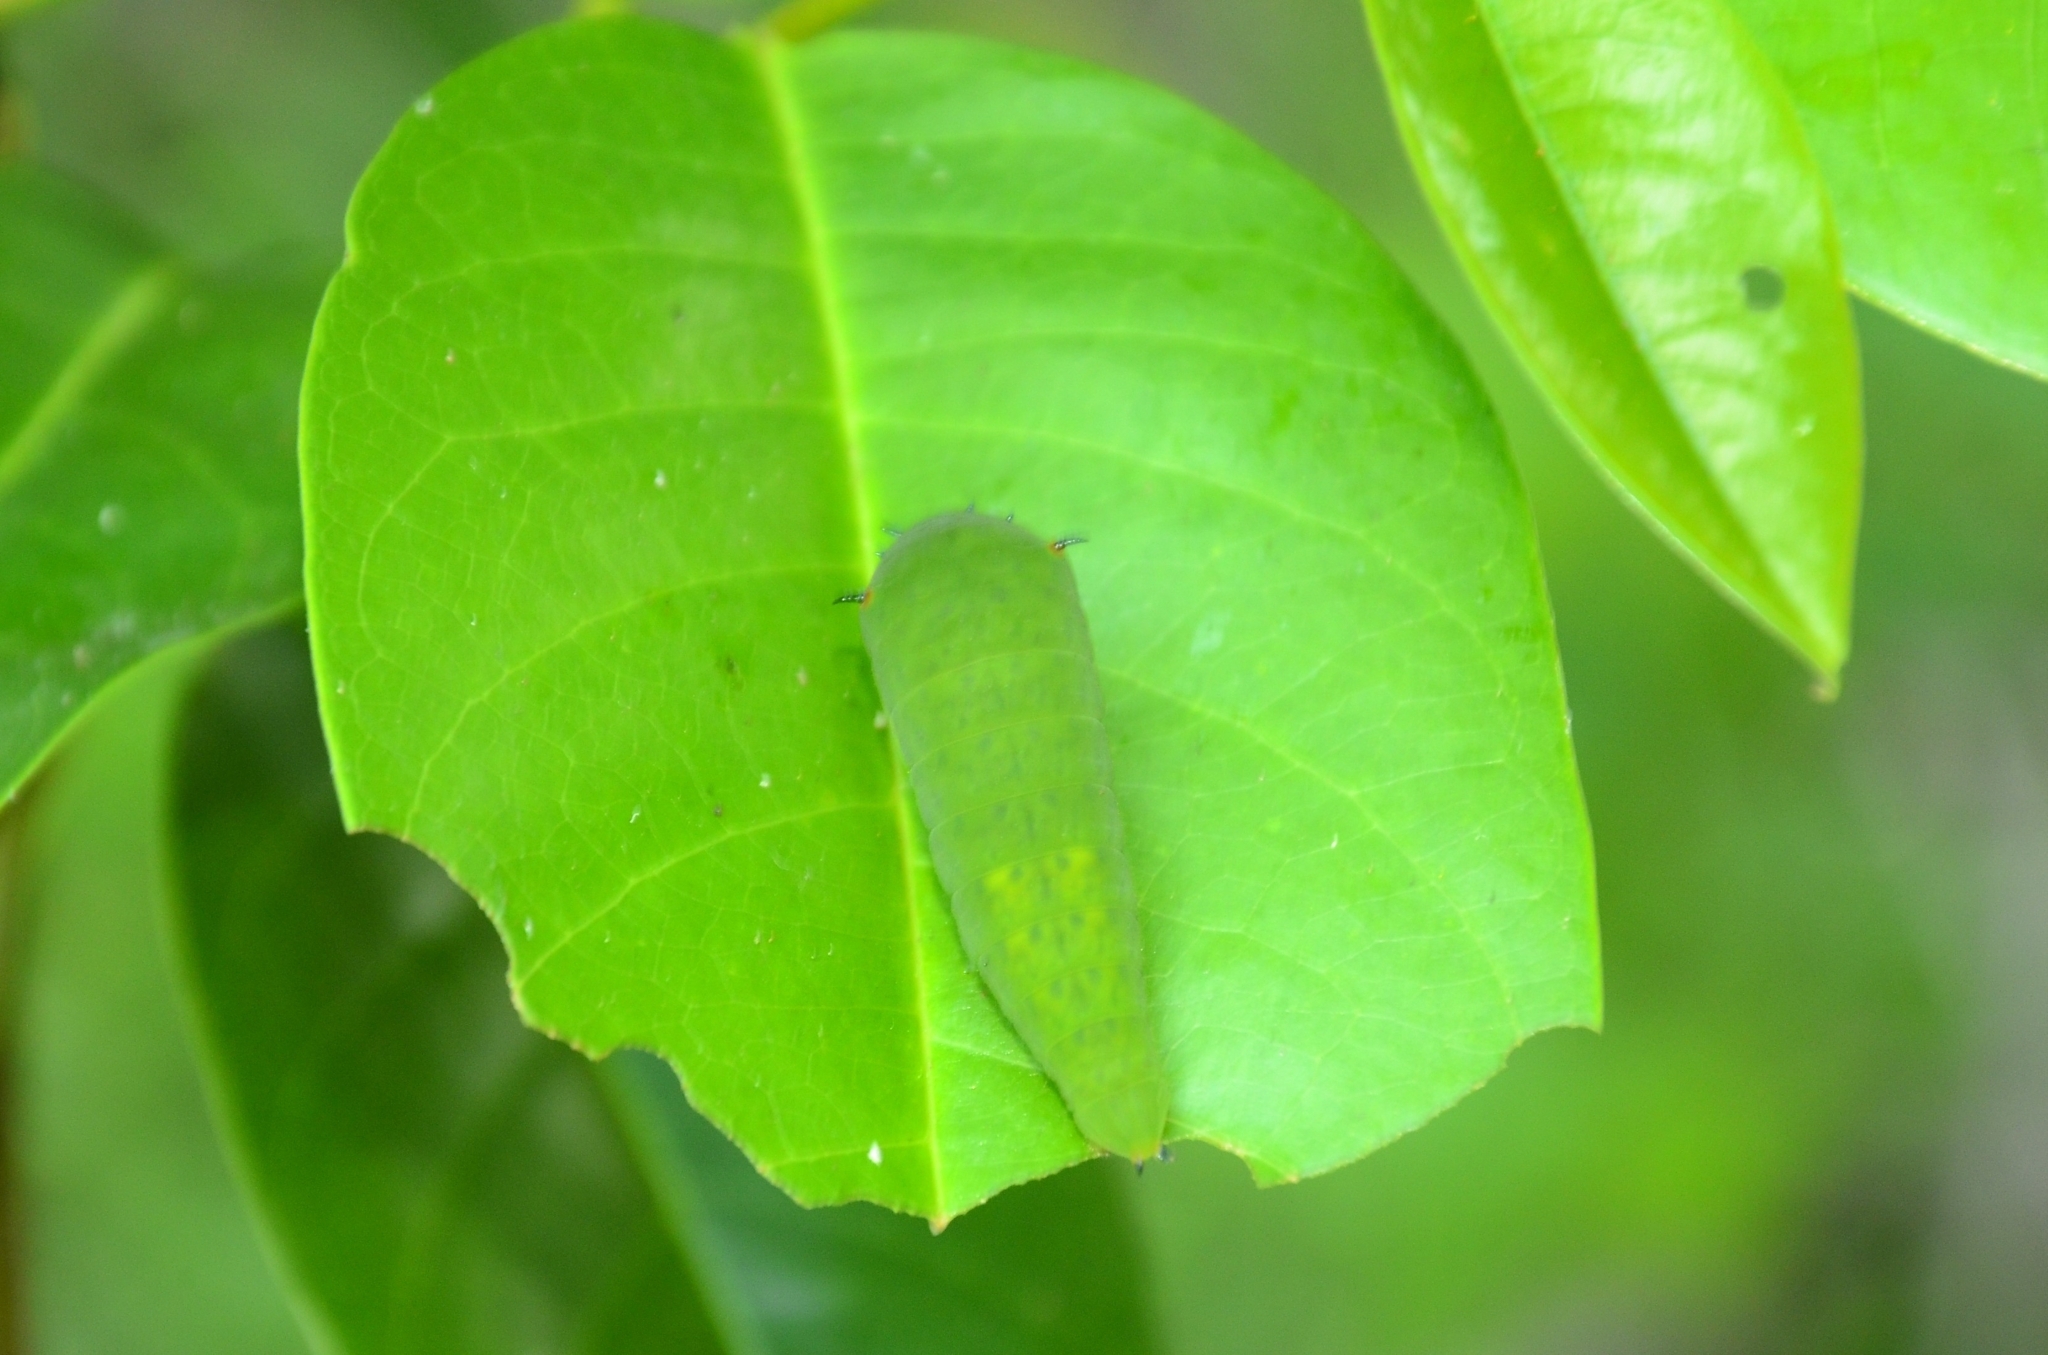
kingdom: Animalia
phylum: Arthropoda
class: Insecta
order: Lepidoptera
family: Papilionidae
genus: Graphium
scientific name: Graphium agamemnon
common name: Tailed jay
